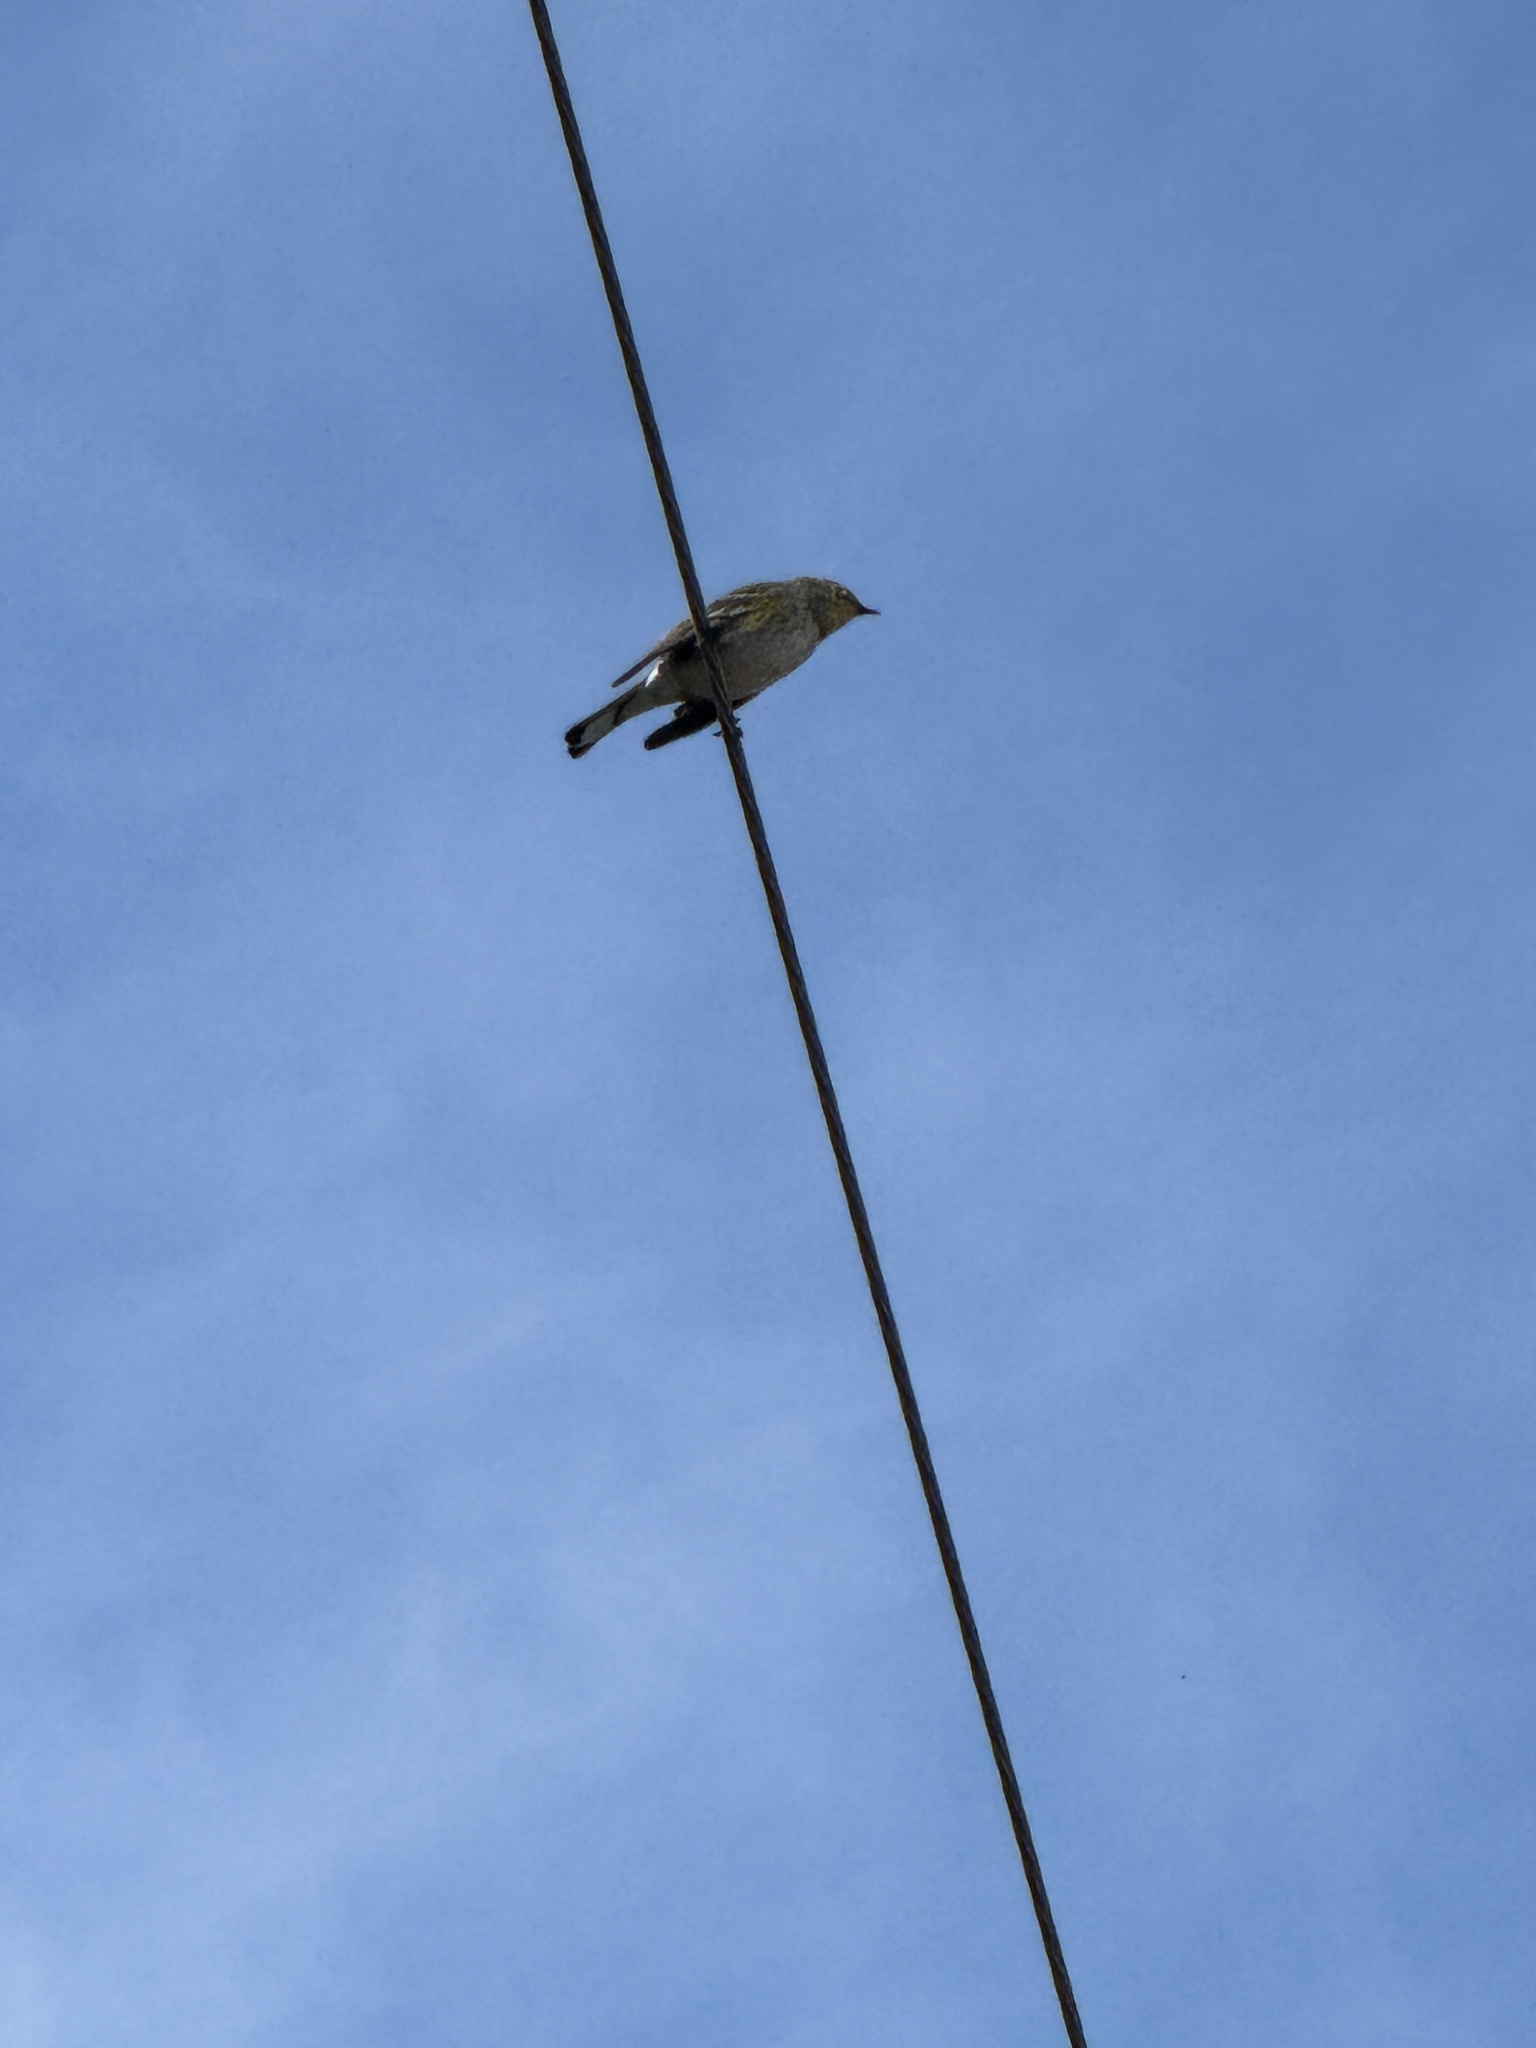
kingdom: Animalia
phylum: Chordata
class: Aves
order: Passeriformes
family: Parulidae
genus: Setophaga
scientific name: Setophaga coronata
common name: Myrtle warbler
